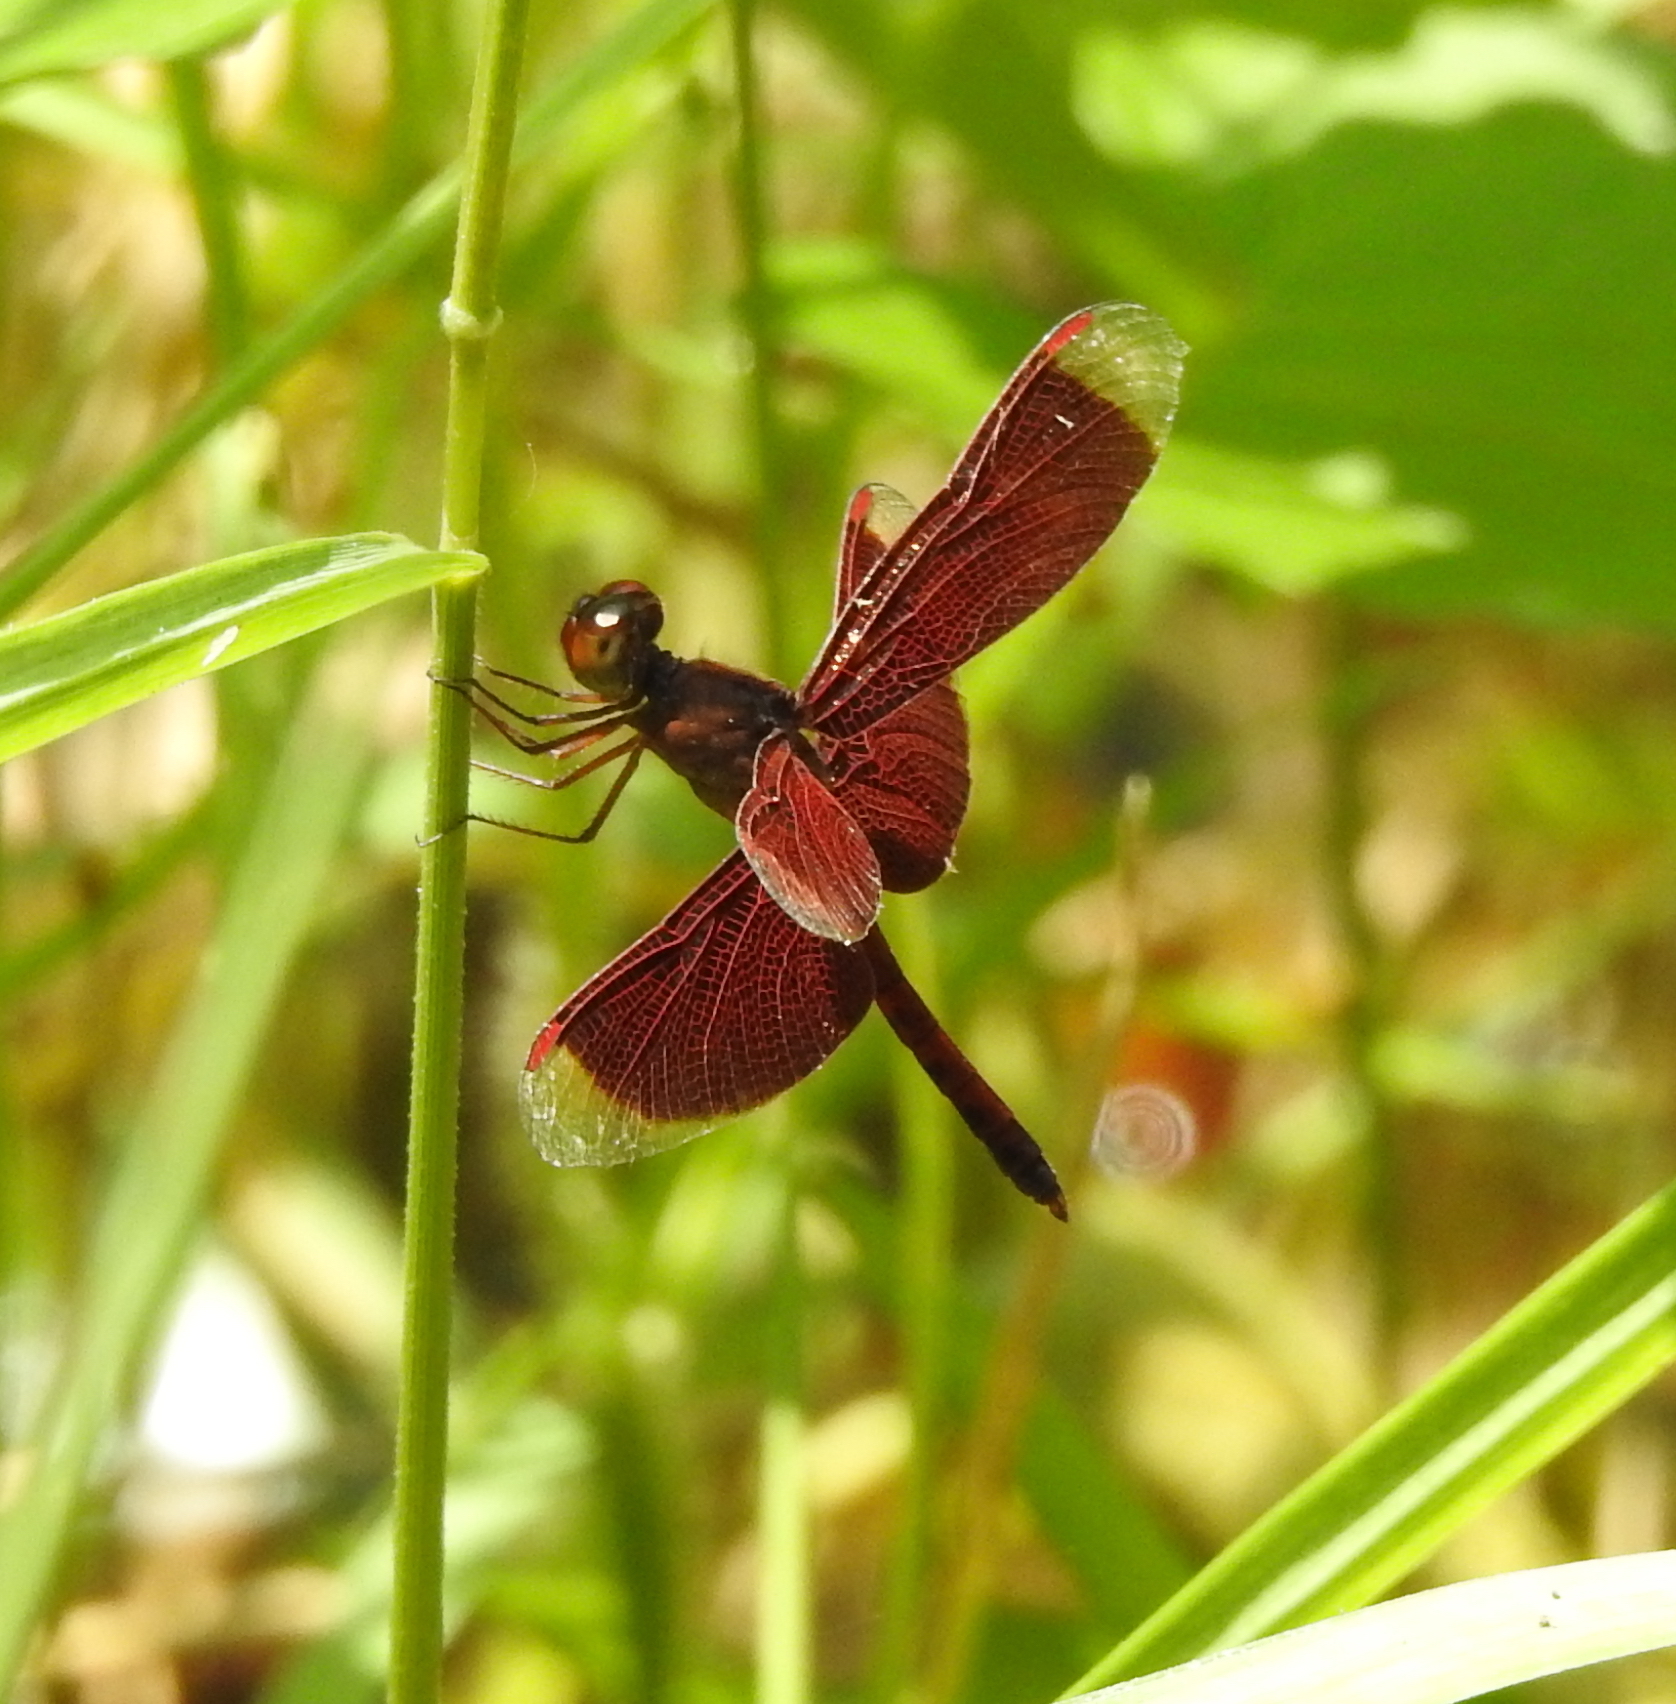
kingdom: Animalia
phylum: Arthropoda
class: Insecta
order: Odonata
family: Libellulidae
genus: Neurothemis
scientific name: Neurothemis fluctuans
